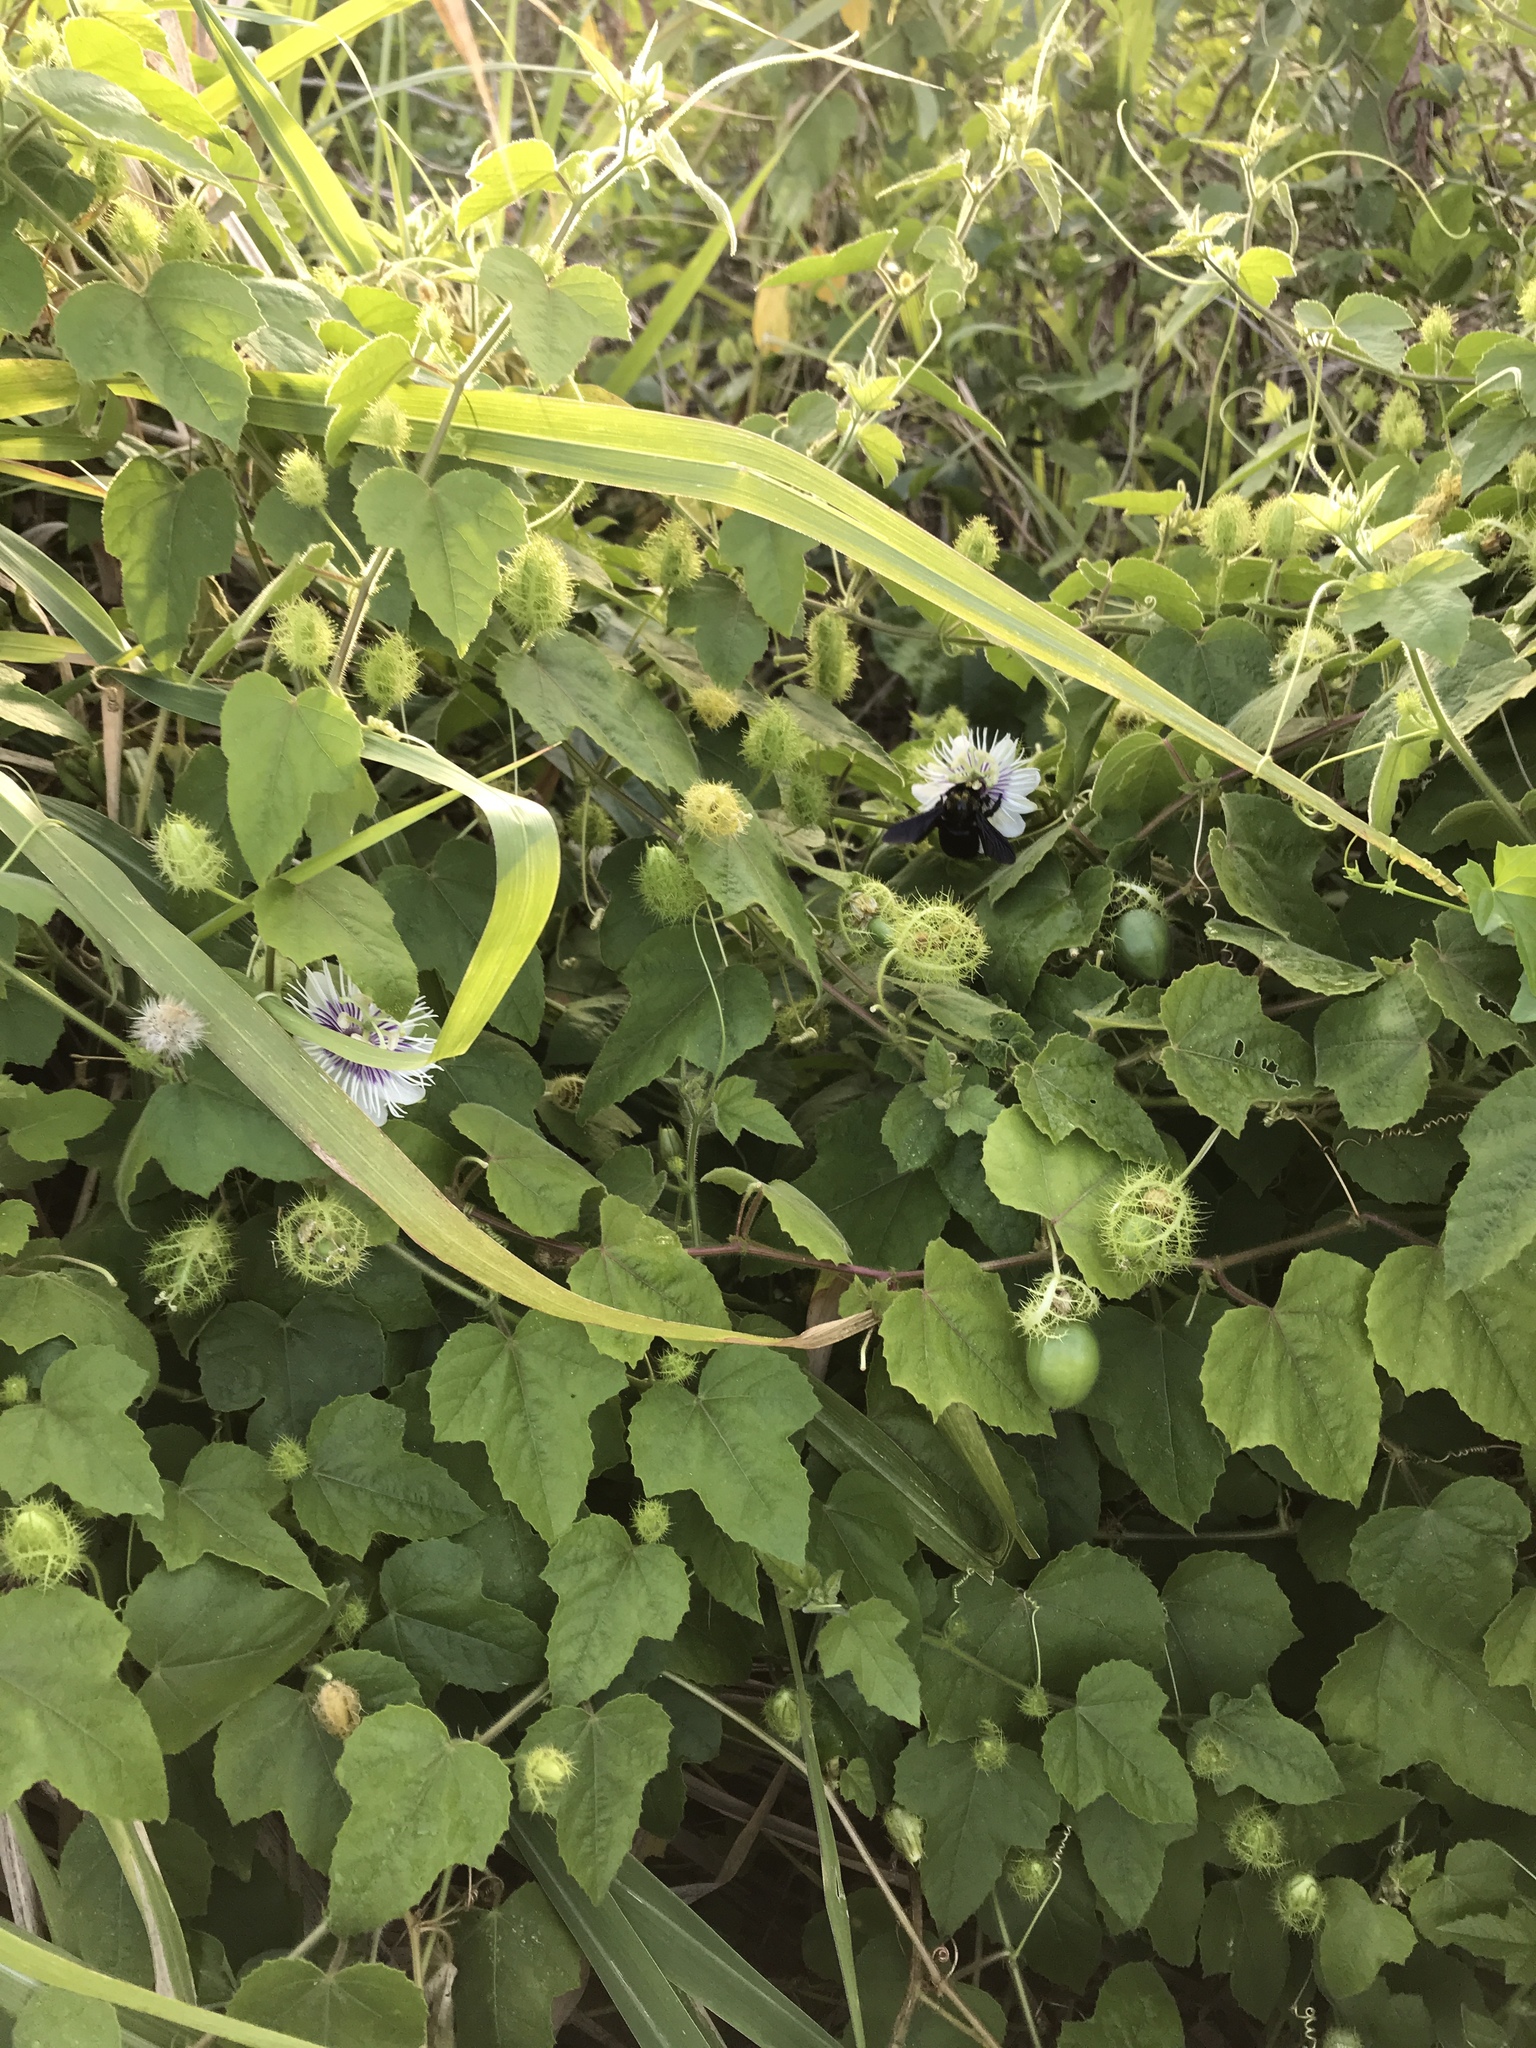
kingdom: Plantae
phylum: Tracheophyta
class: Magnoliopsida
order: Malpighiales
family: Passifloraceae
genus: Passiflora
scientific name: Passiflora foetida
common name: Fetid passionflower
